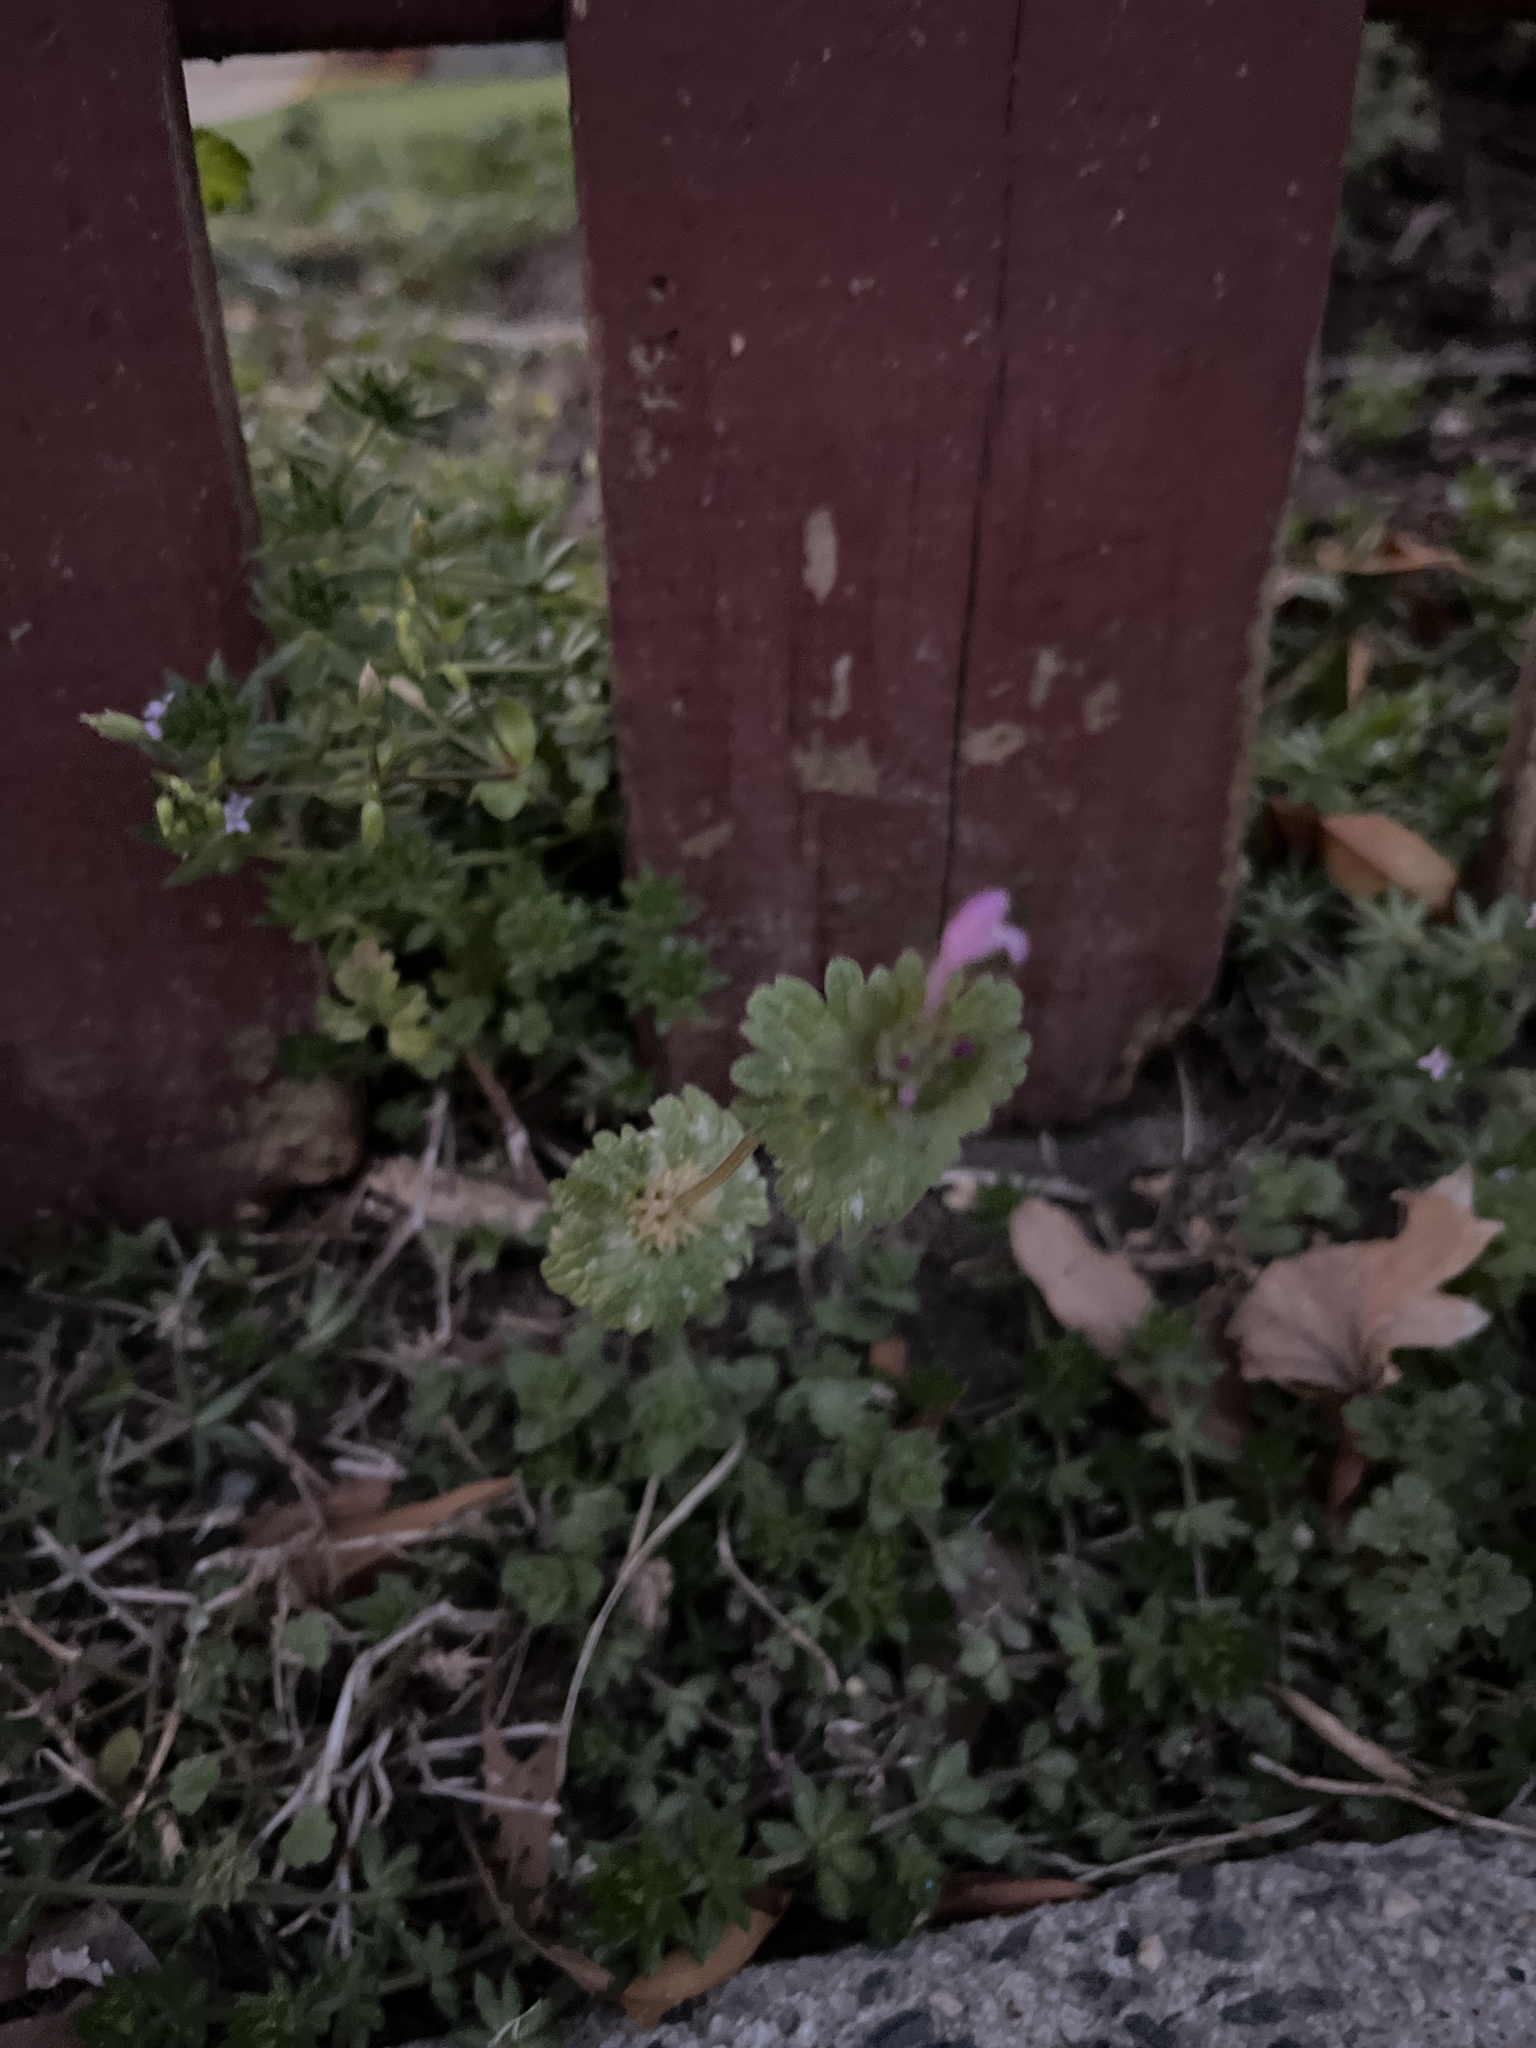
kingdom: Plantae
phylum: Tracheophyta
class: Magnoliopsida
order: Lamiales
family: Lamiaceae
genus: Lamium
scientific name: Lamium amplexicaule
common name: Henbit dead-nettle
